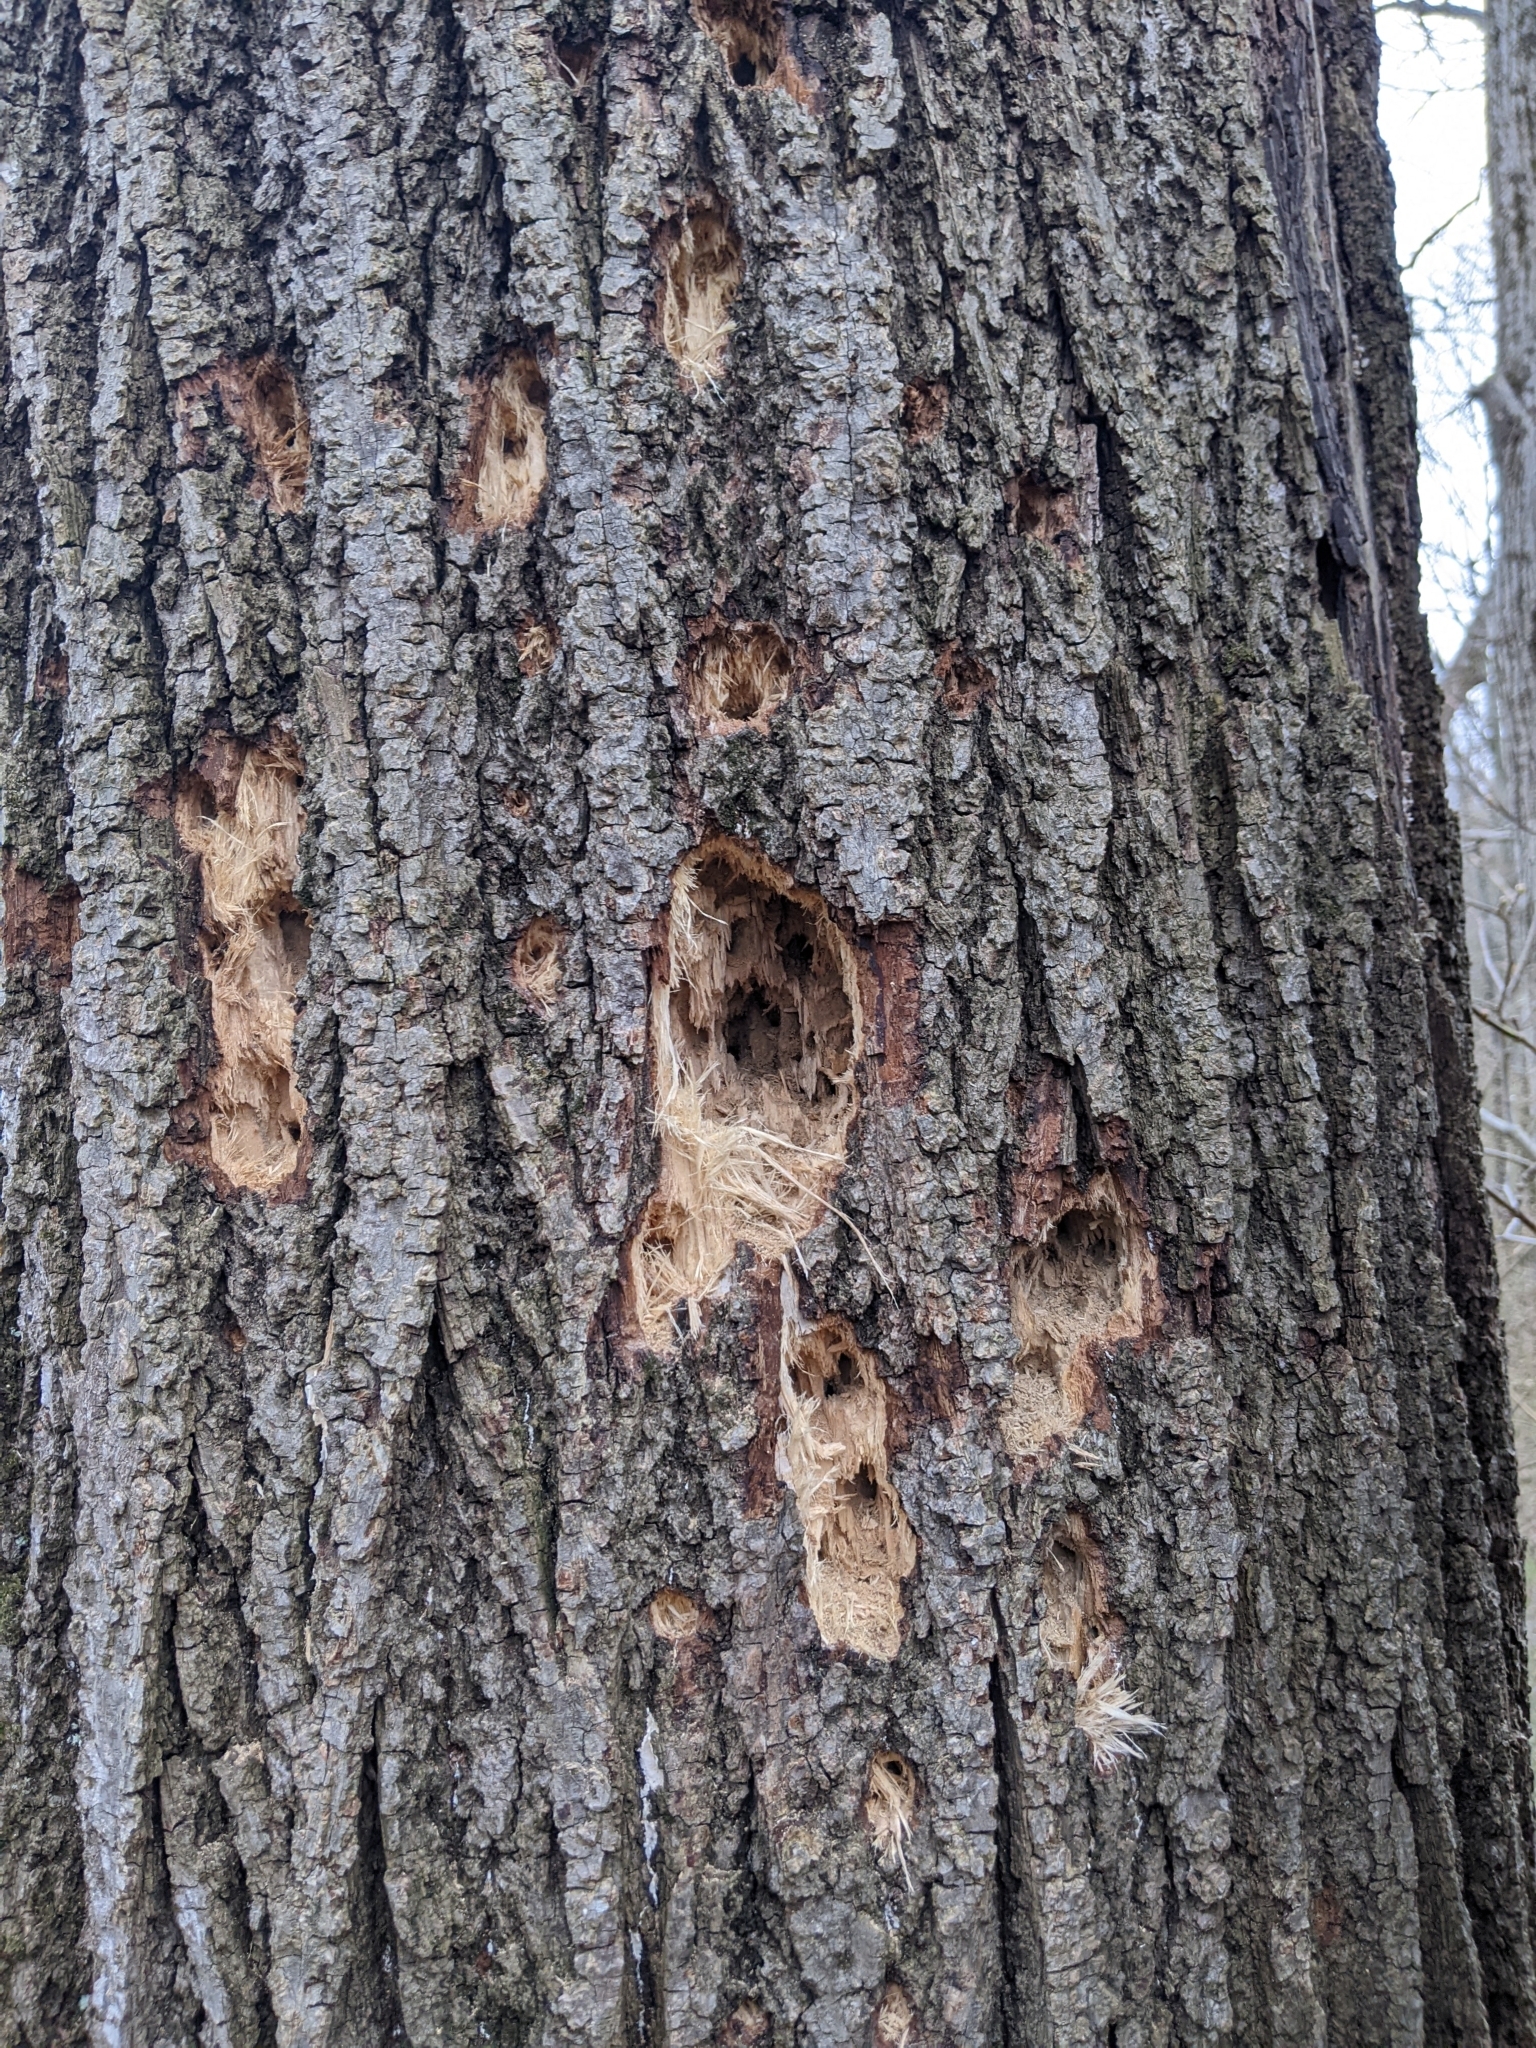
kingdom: Animalia
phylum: Chordata
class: Aves
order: Piciformes
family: Picidae
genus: Dryocopus
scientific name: Dryocopus pileatus
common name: Pileated woodpecker
